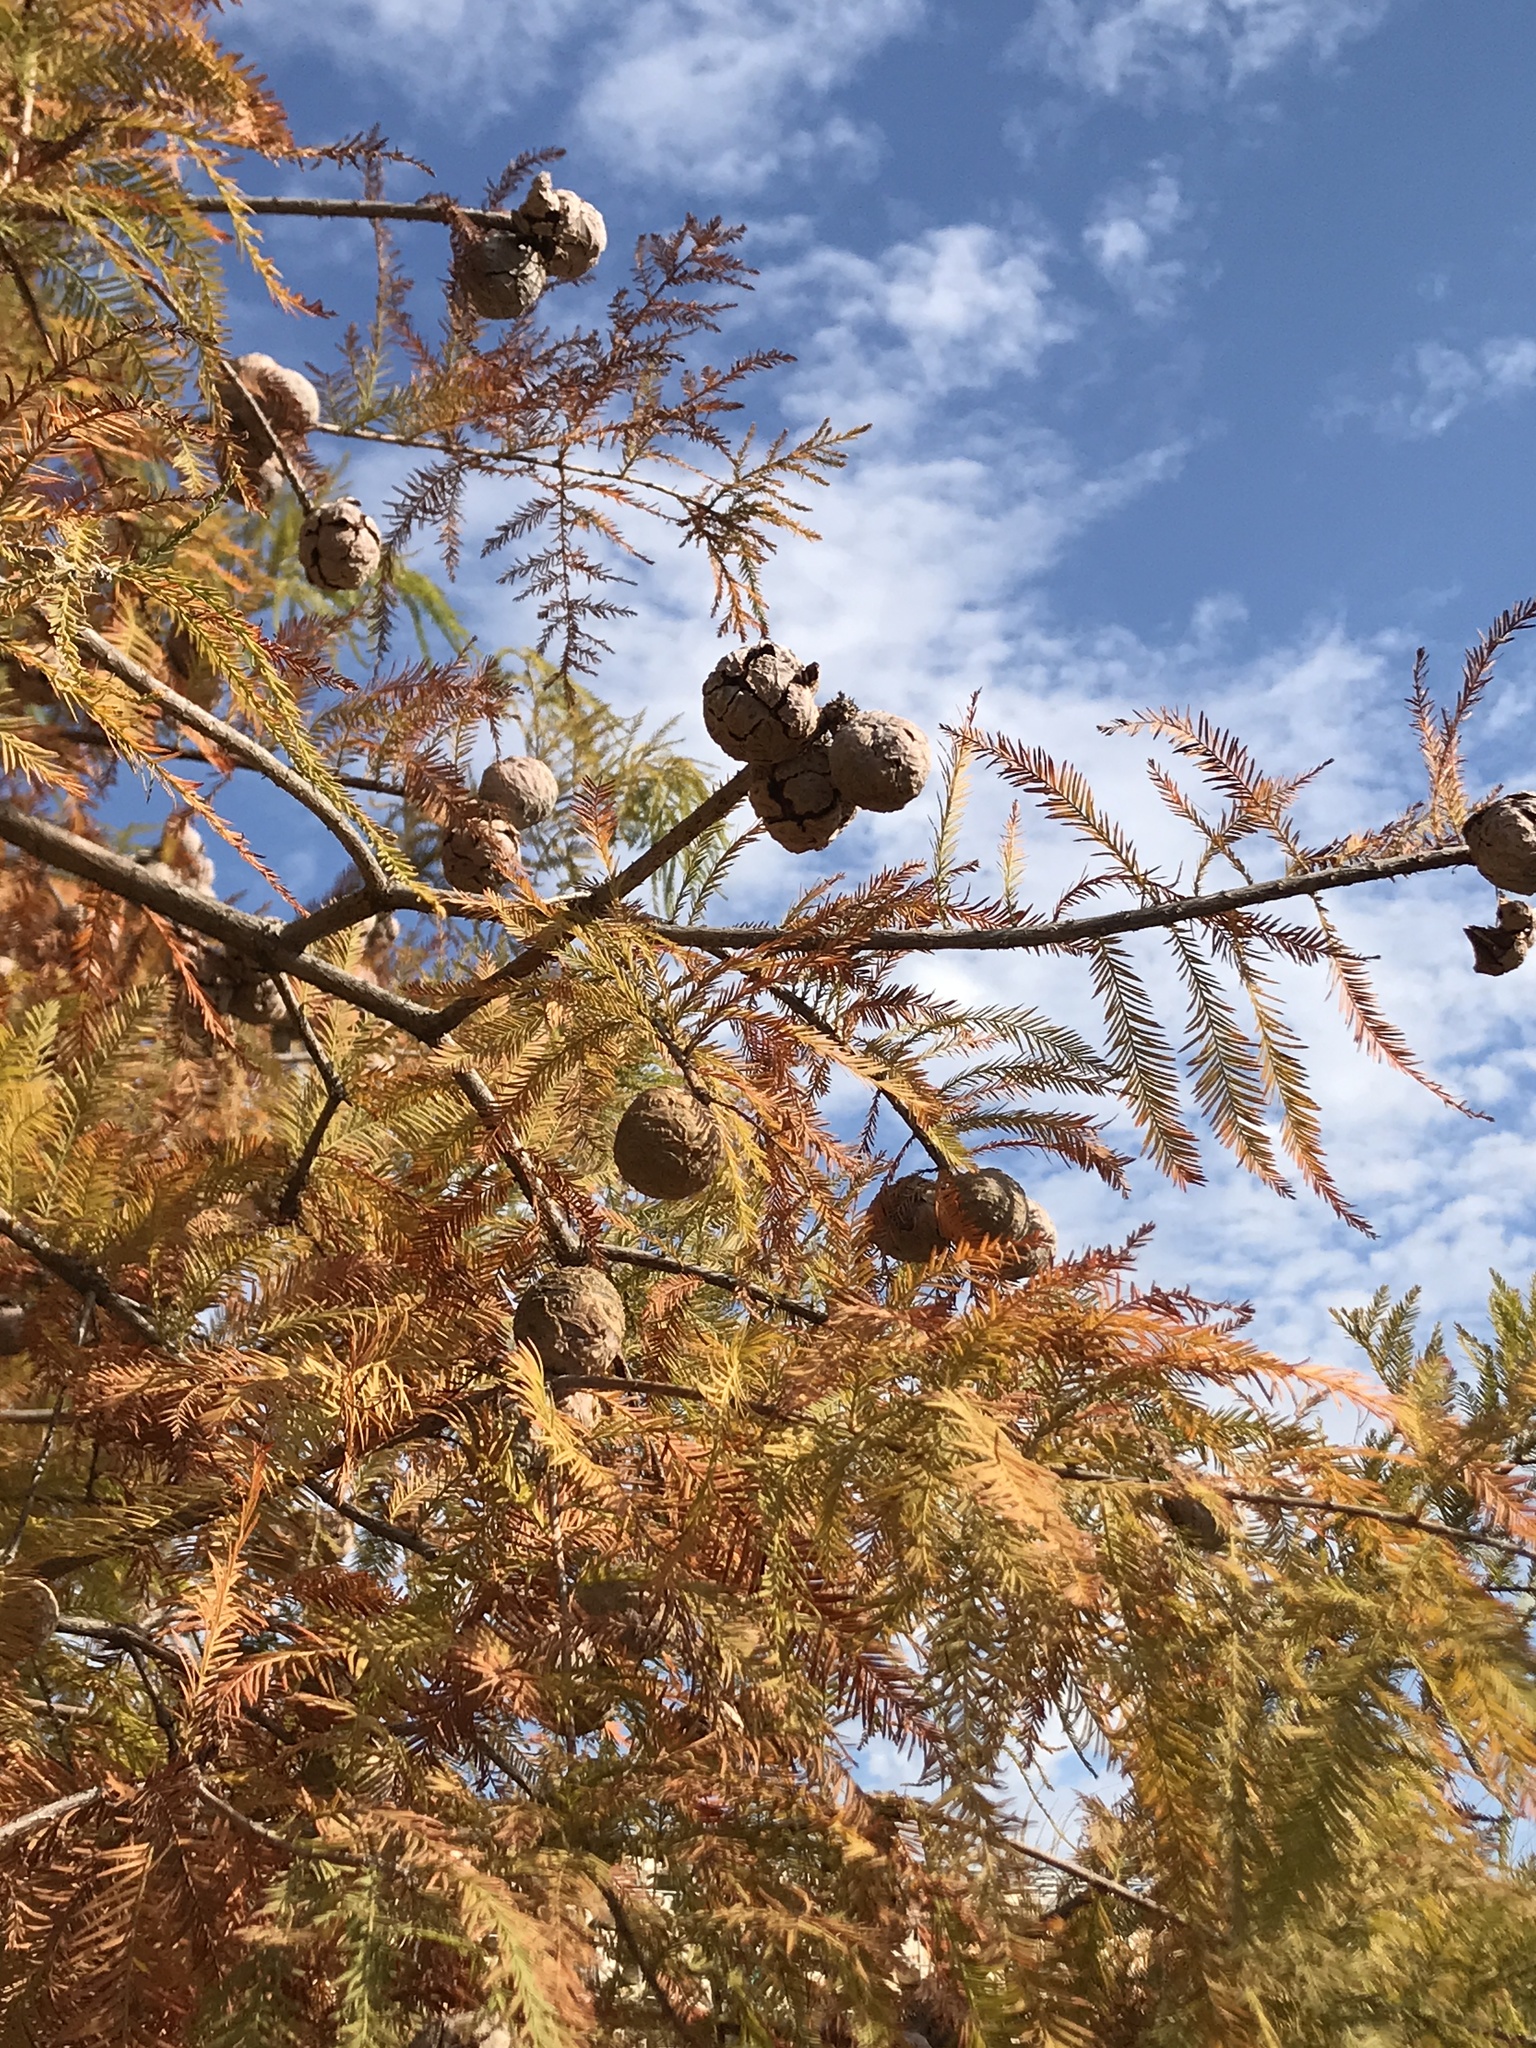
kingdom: Plantae
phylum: Tracheophyta
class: Pinopsida
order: Pinales
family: Cupressaceae
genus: Taxodium
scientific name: Taxodium distichum
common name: Bald cypress
